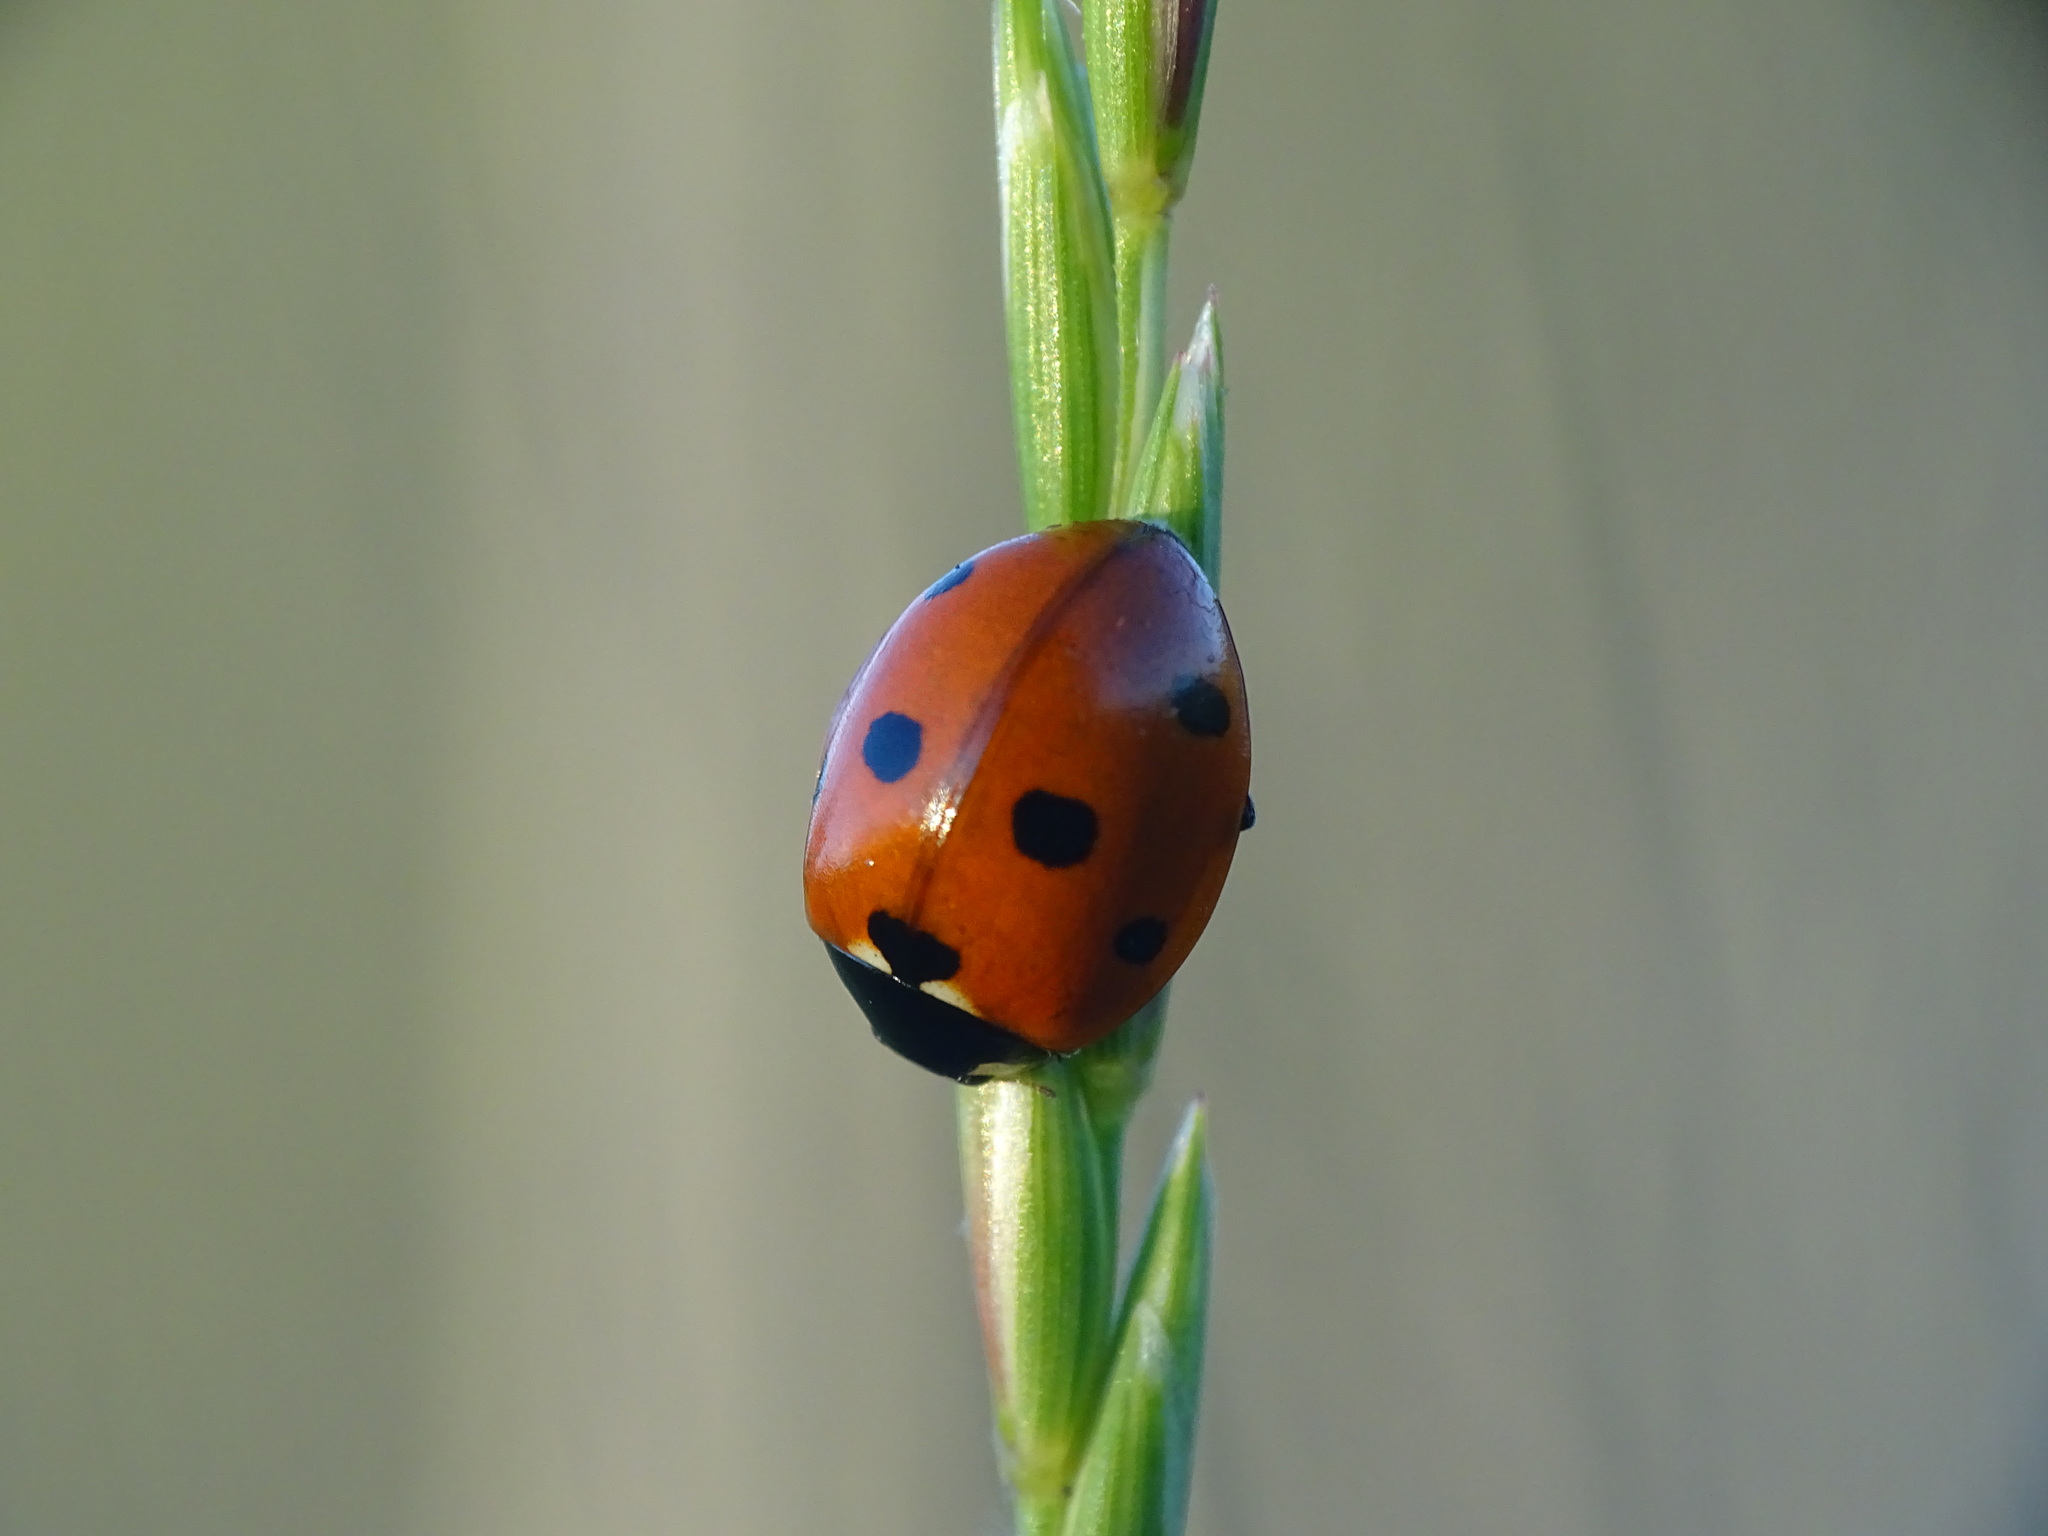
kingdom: Animalia
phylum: Arthropoda
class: Insecta
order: Coleoptera
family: Coccinellidae
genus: Coccinella
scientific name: Coccinella septempunctata
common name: Sevenspotted lady beetle
